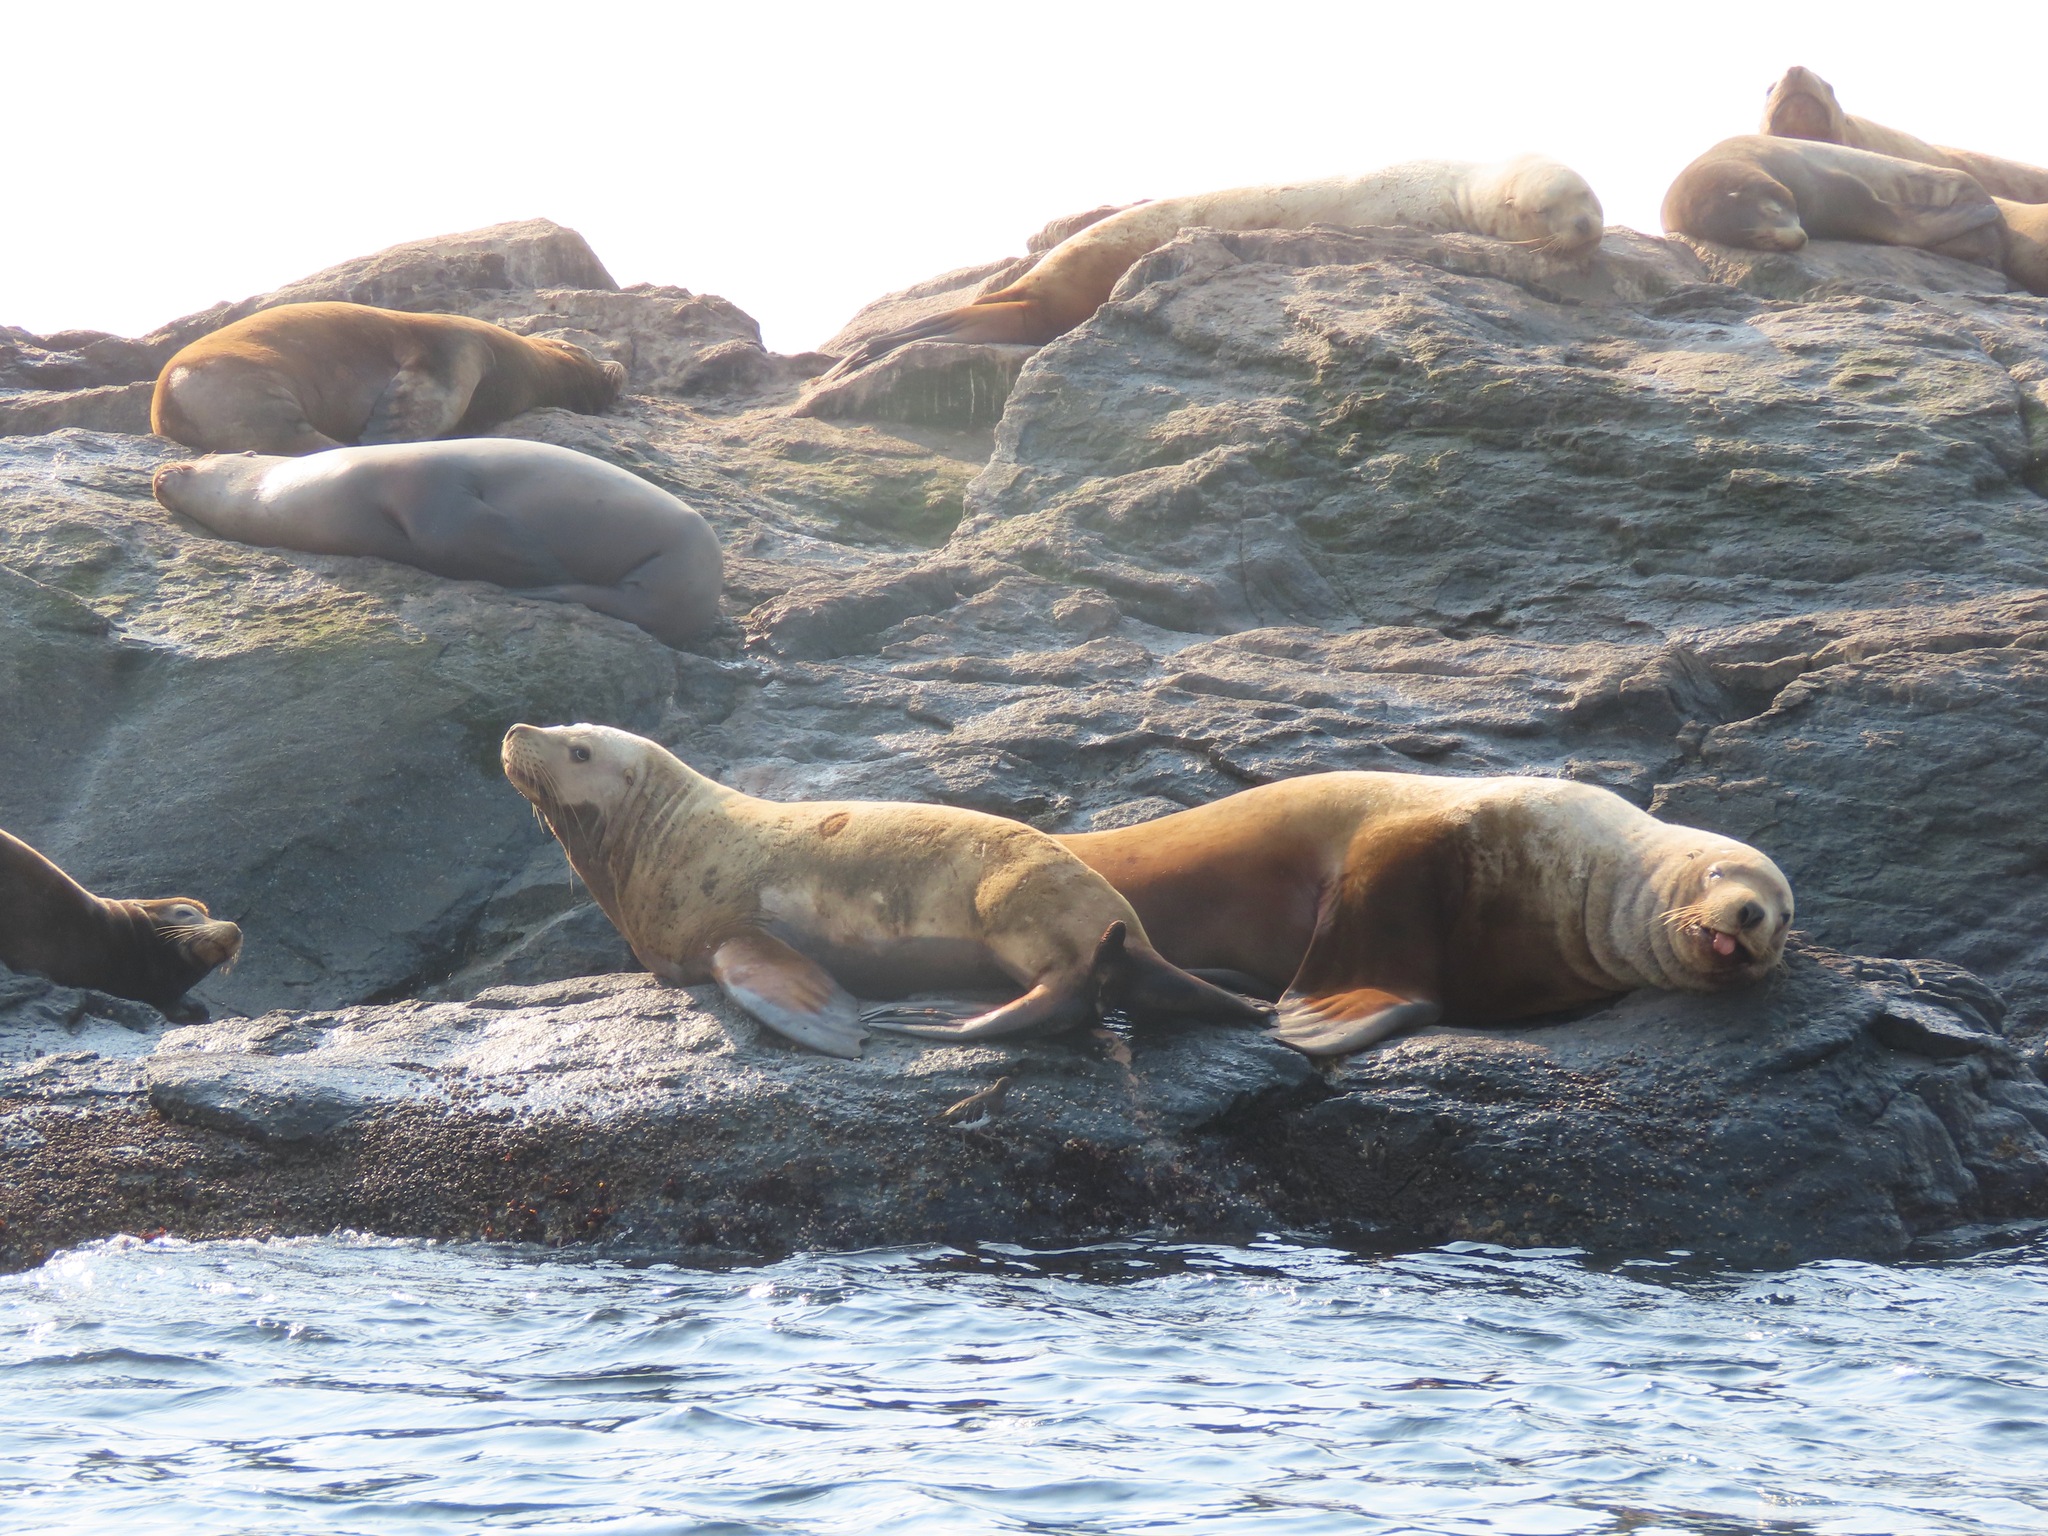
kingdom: Animalia
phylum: Chordata
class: Mammalia
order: Carnivora
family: Otariidae
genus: Eumetopias
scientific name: Eumetopias jubatus
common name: Steller sea lion
